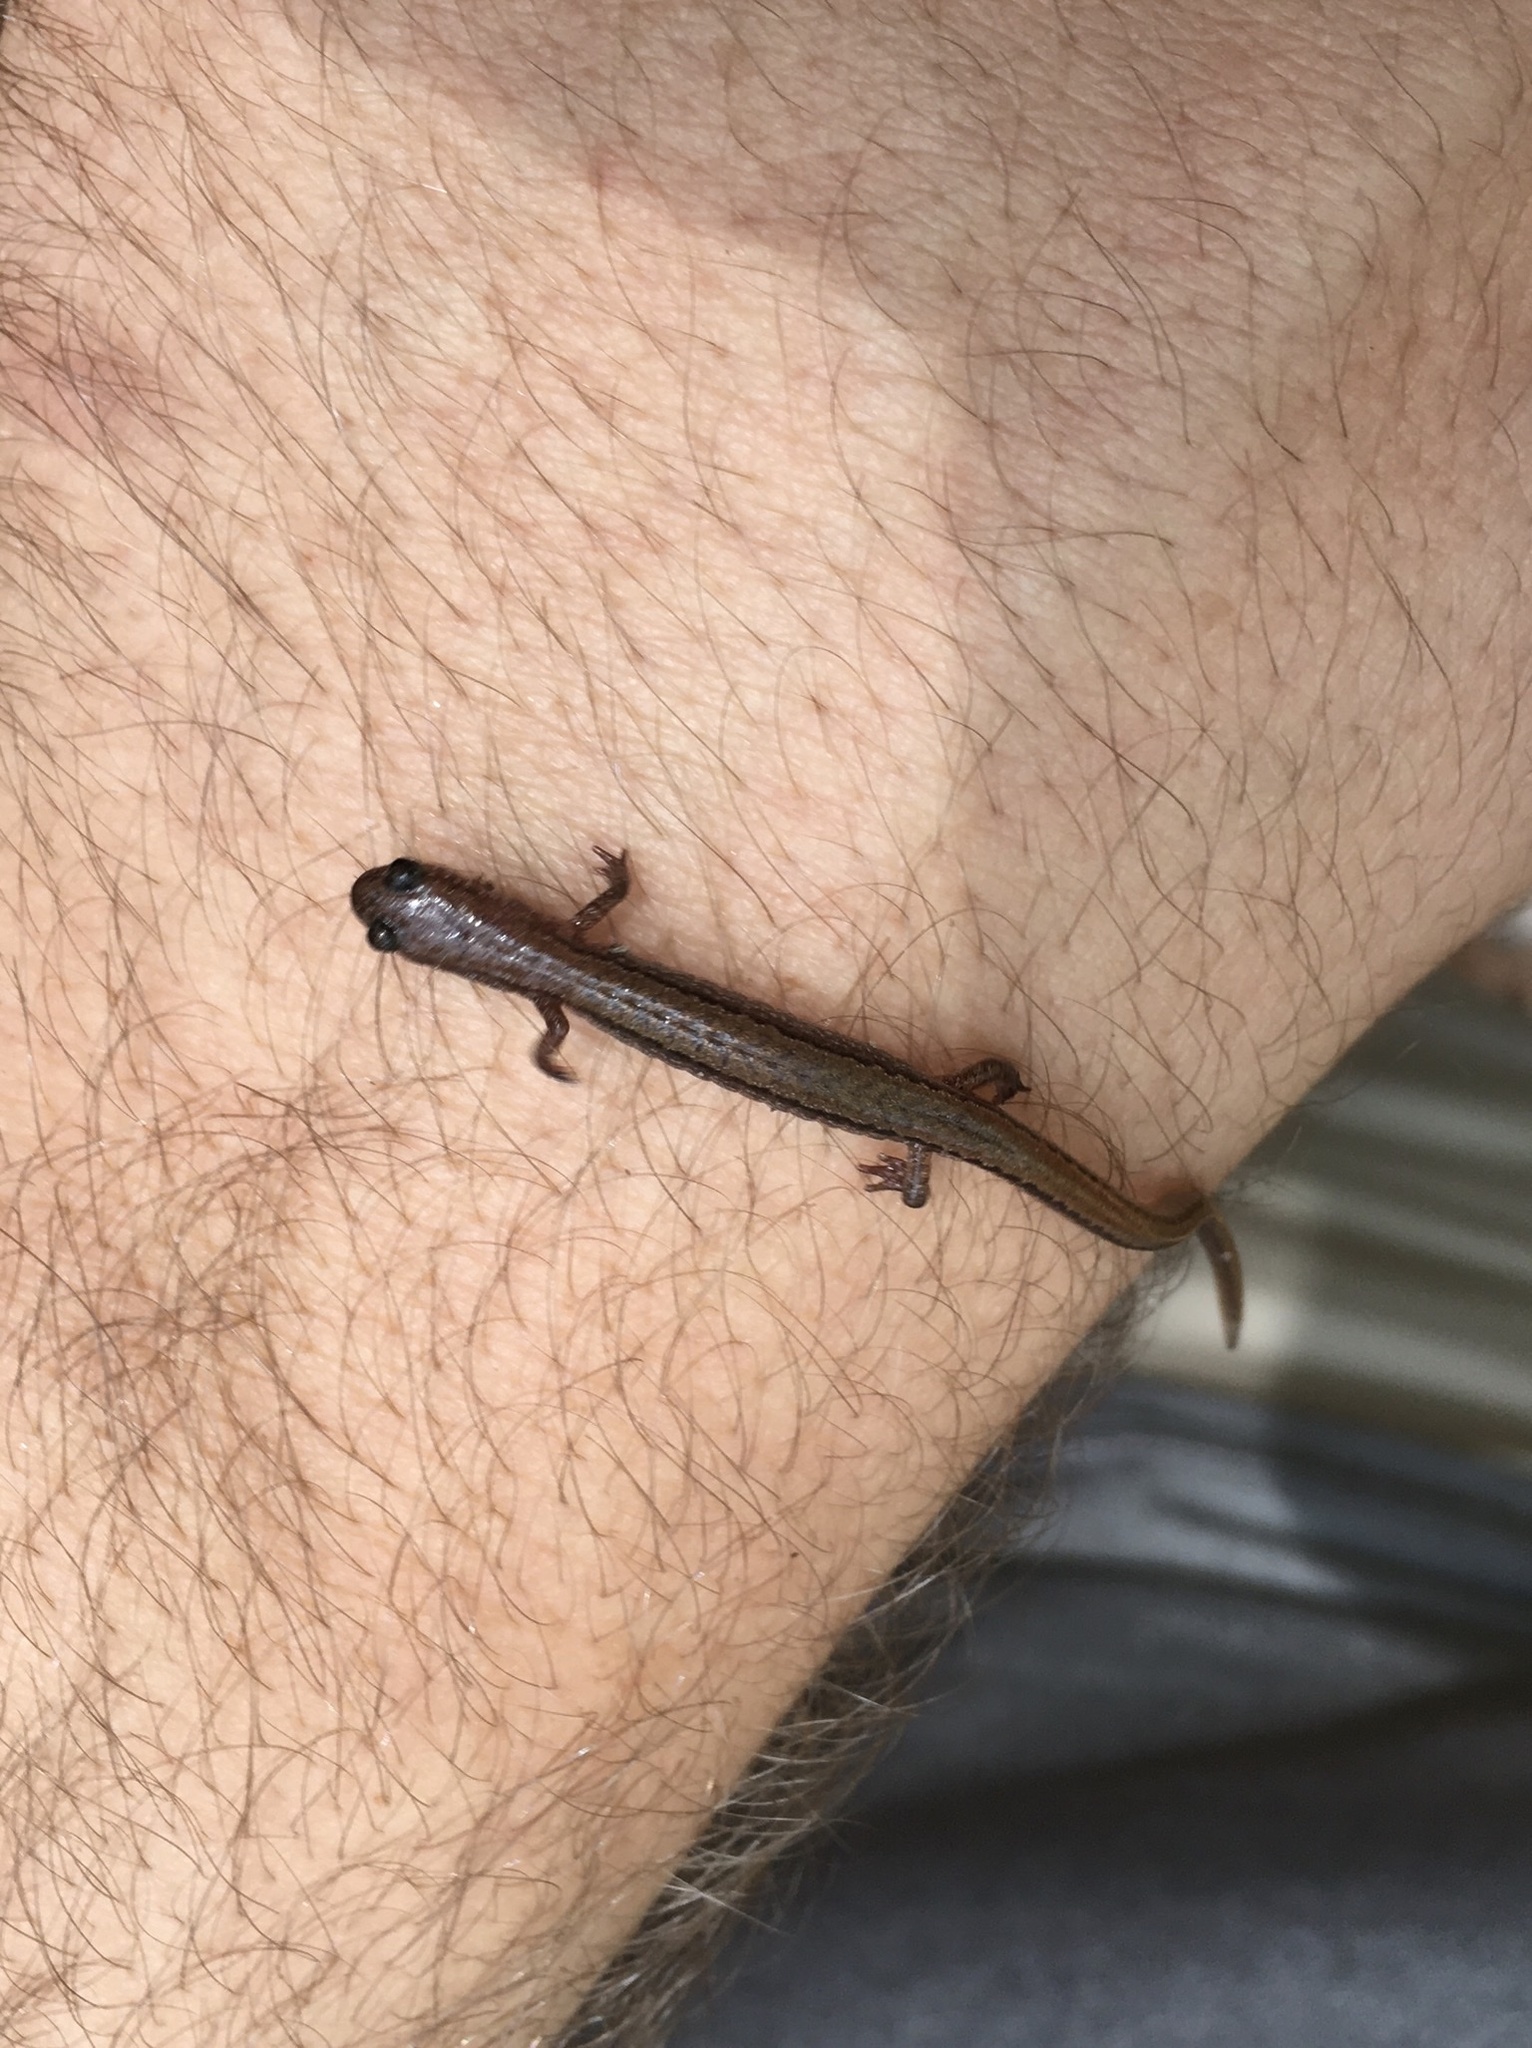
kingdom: Animalia
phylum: Chordata
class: Amphibia
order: Caudata
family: Plethodontidae
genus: Eurycea
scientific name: Eurycea paludicola
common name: Western dwarf salamander
